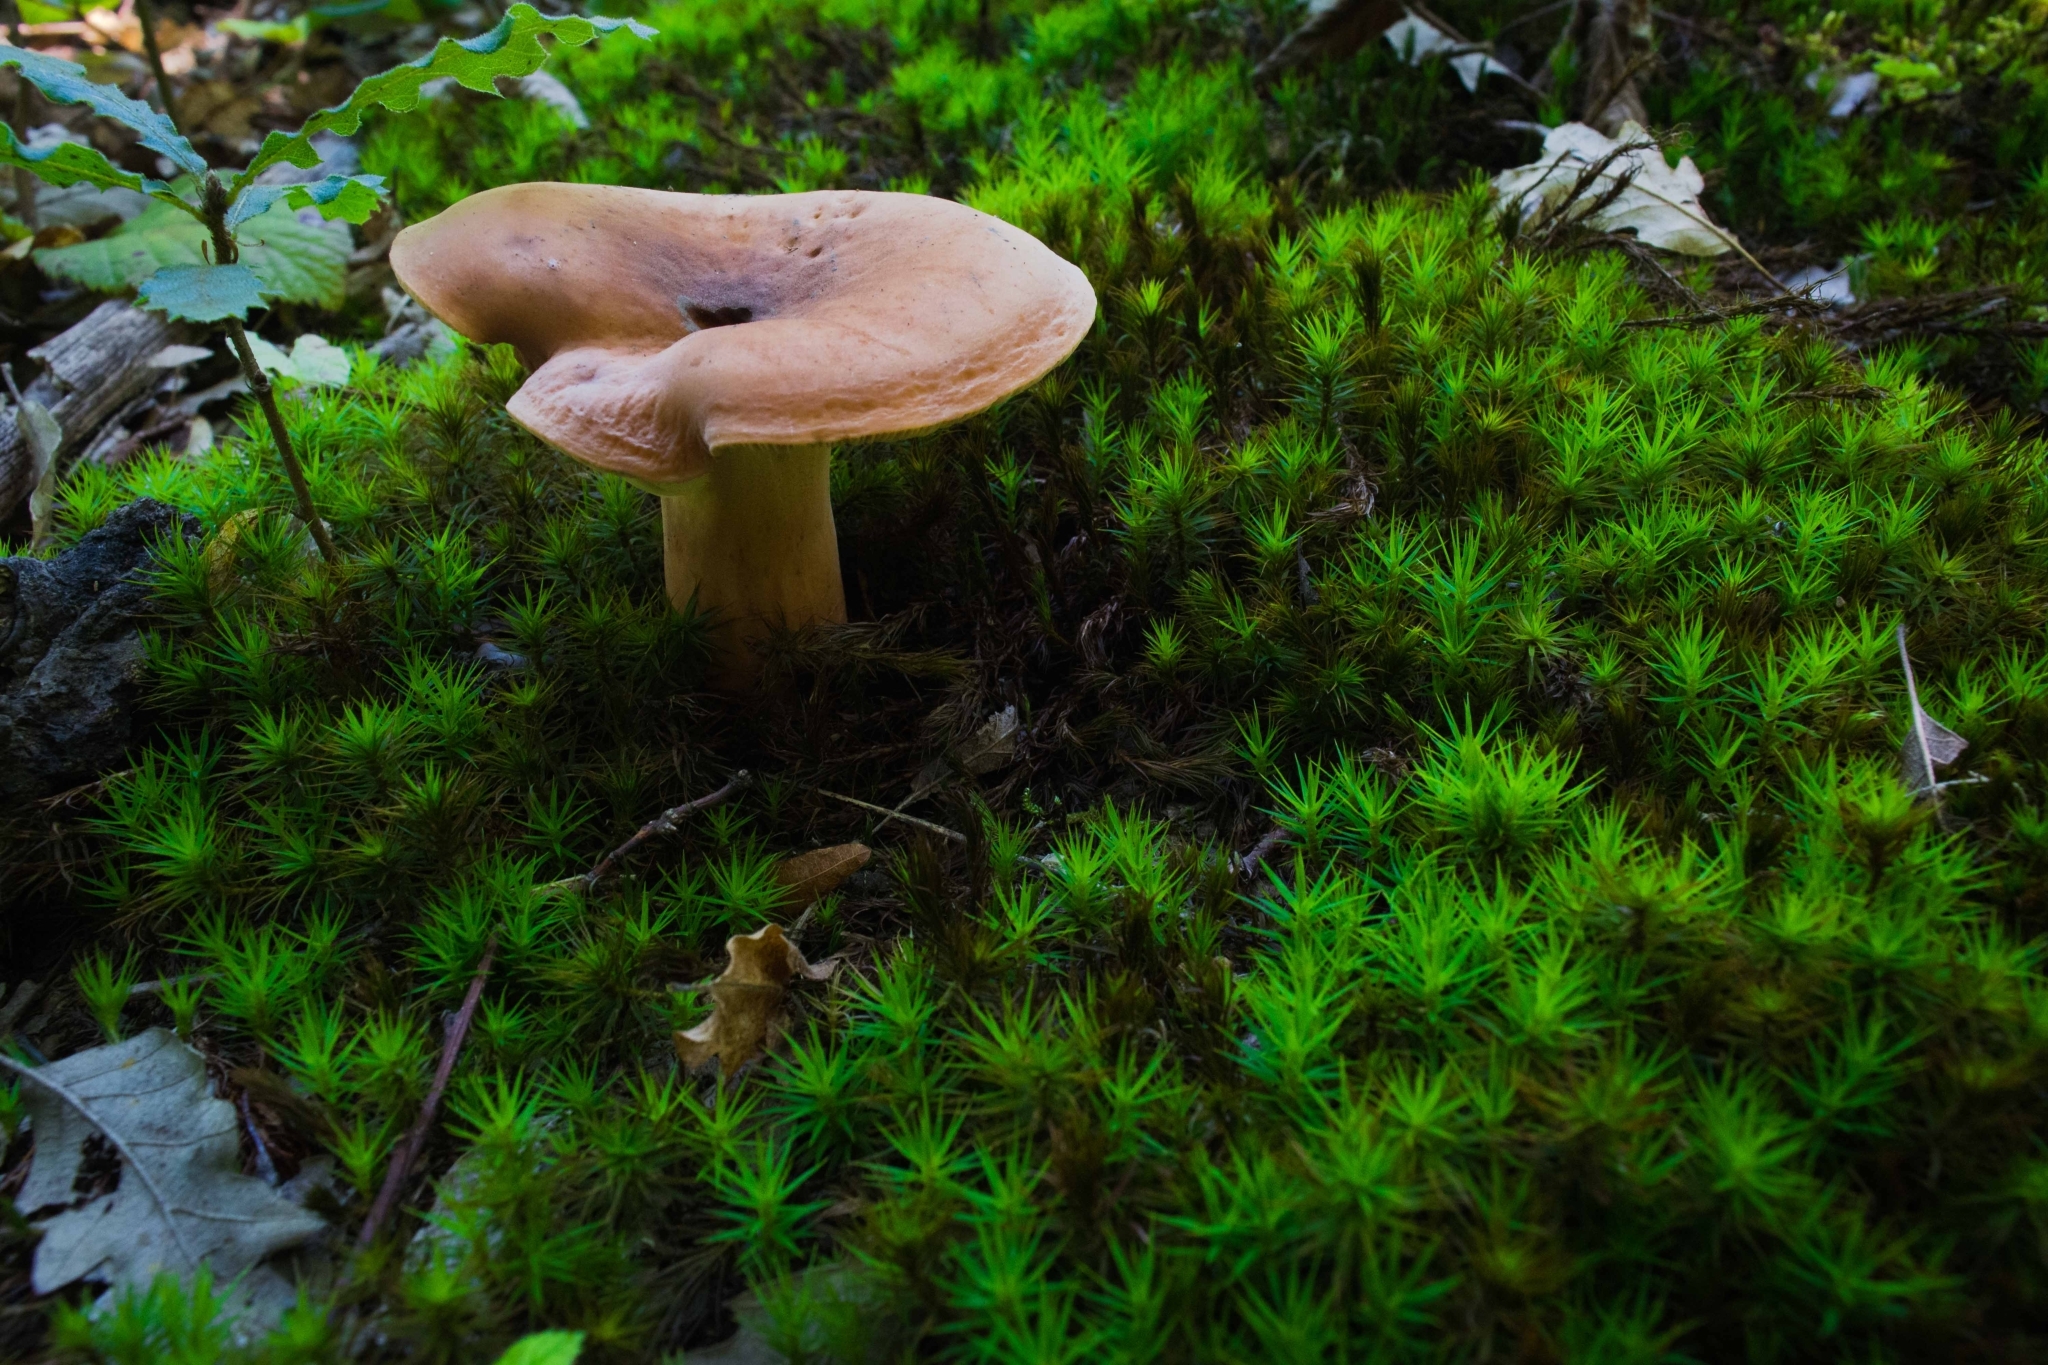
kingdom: Fungi
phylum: Basidiomycota
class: Agaricomycetes
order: Russulales
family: Russulaceae
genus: Lactifluus
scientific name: Lactifluus volemus
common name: Fishy milkcap
